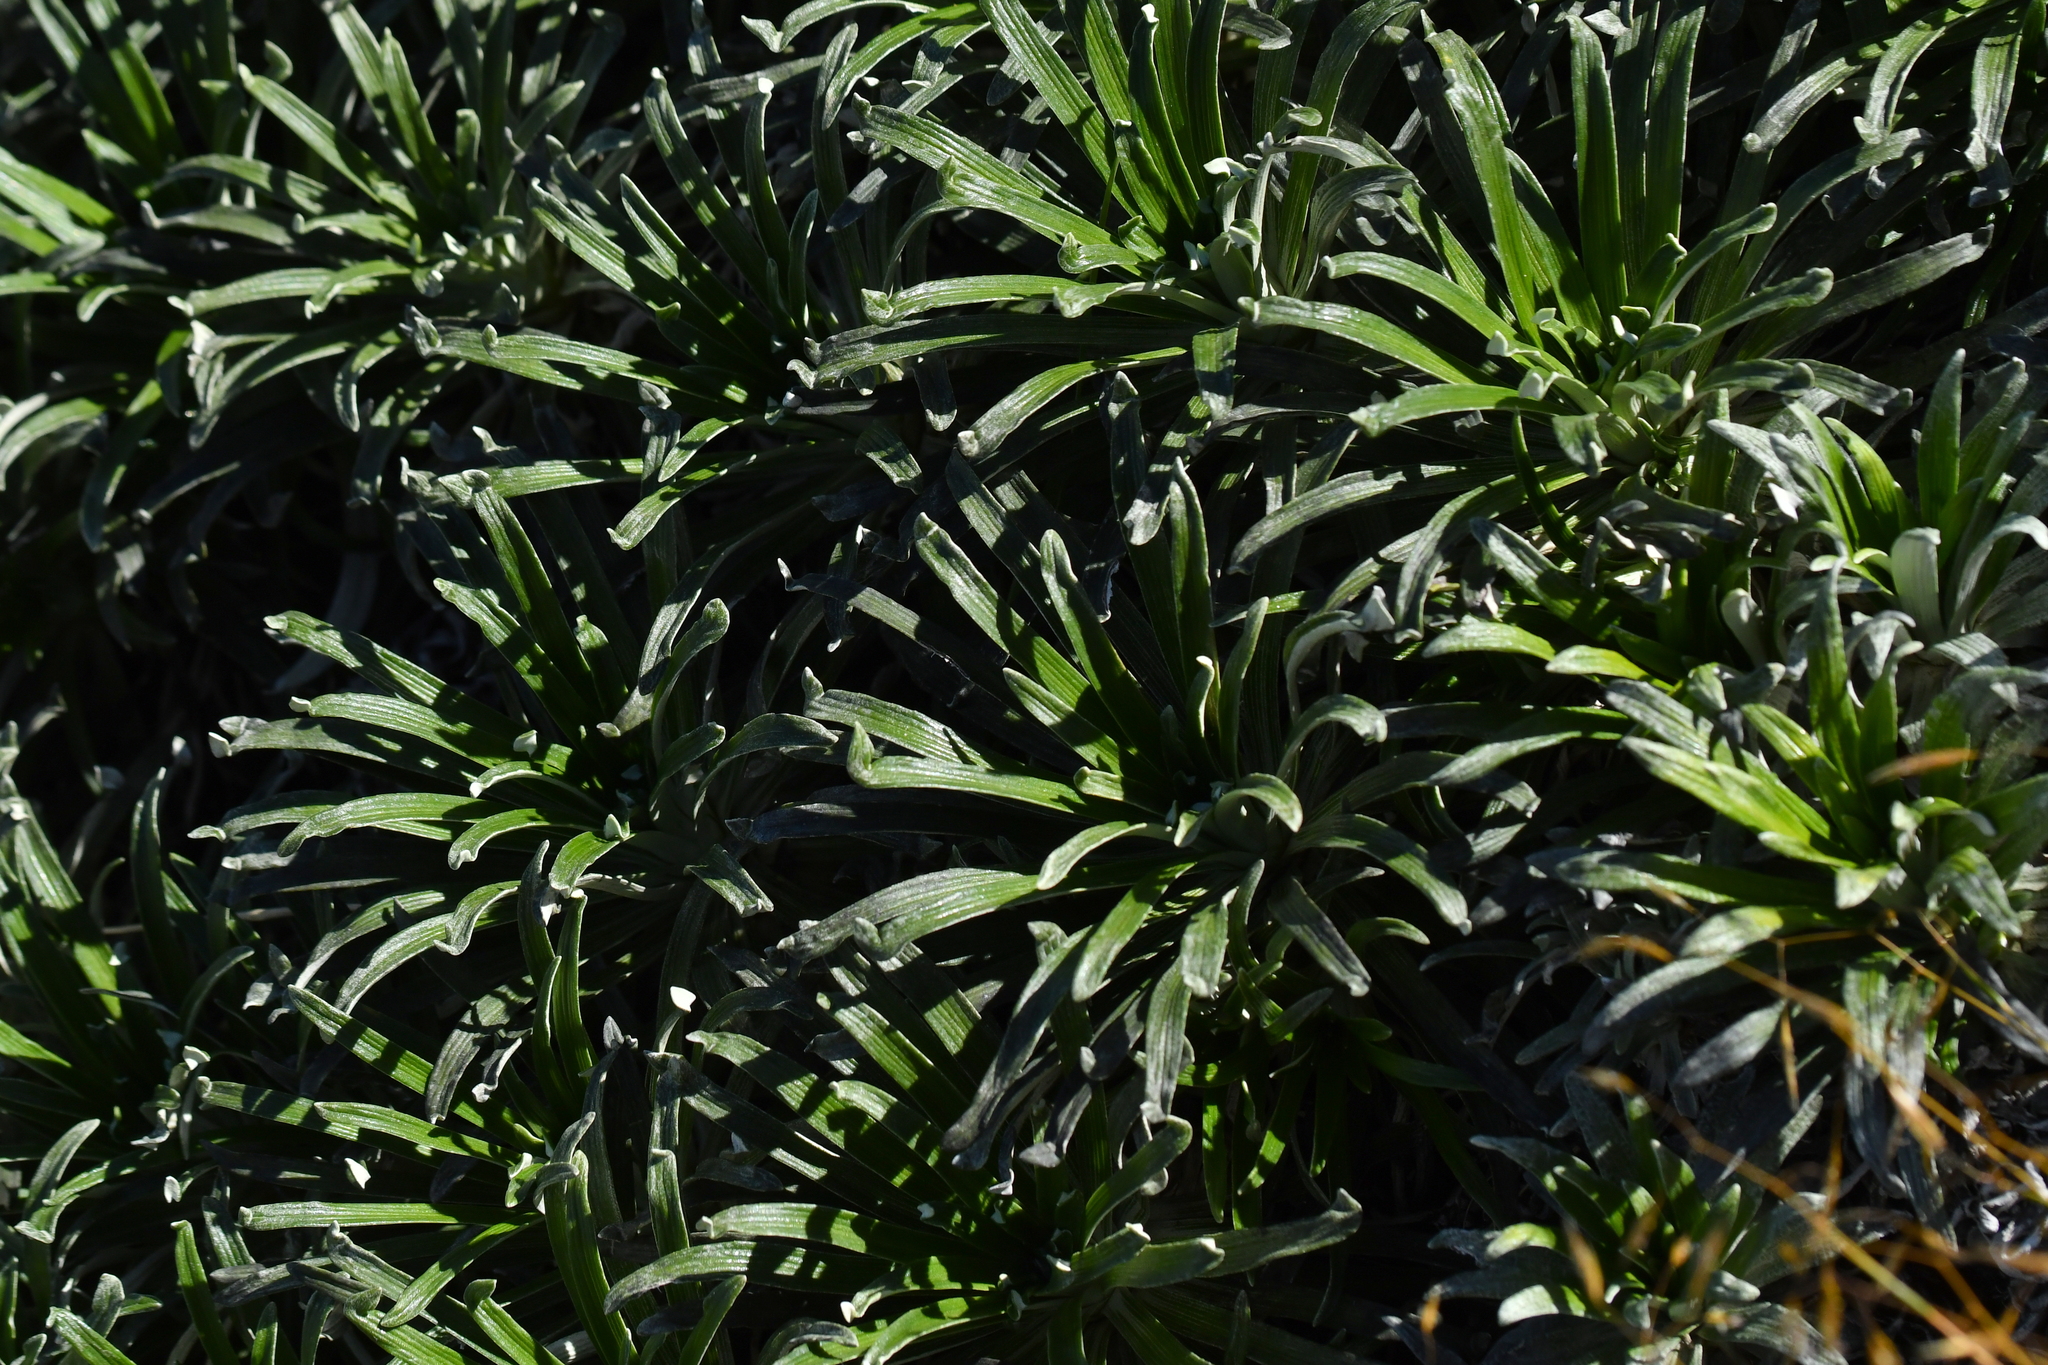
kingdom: Plantae
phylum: Tracheophyta
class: Magnoliopsida
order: Asterales
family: Asteraceae
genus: Celmisia
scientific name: Celmisia viscosa
